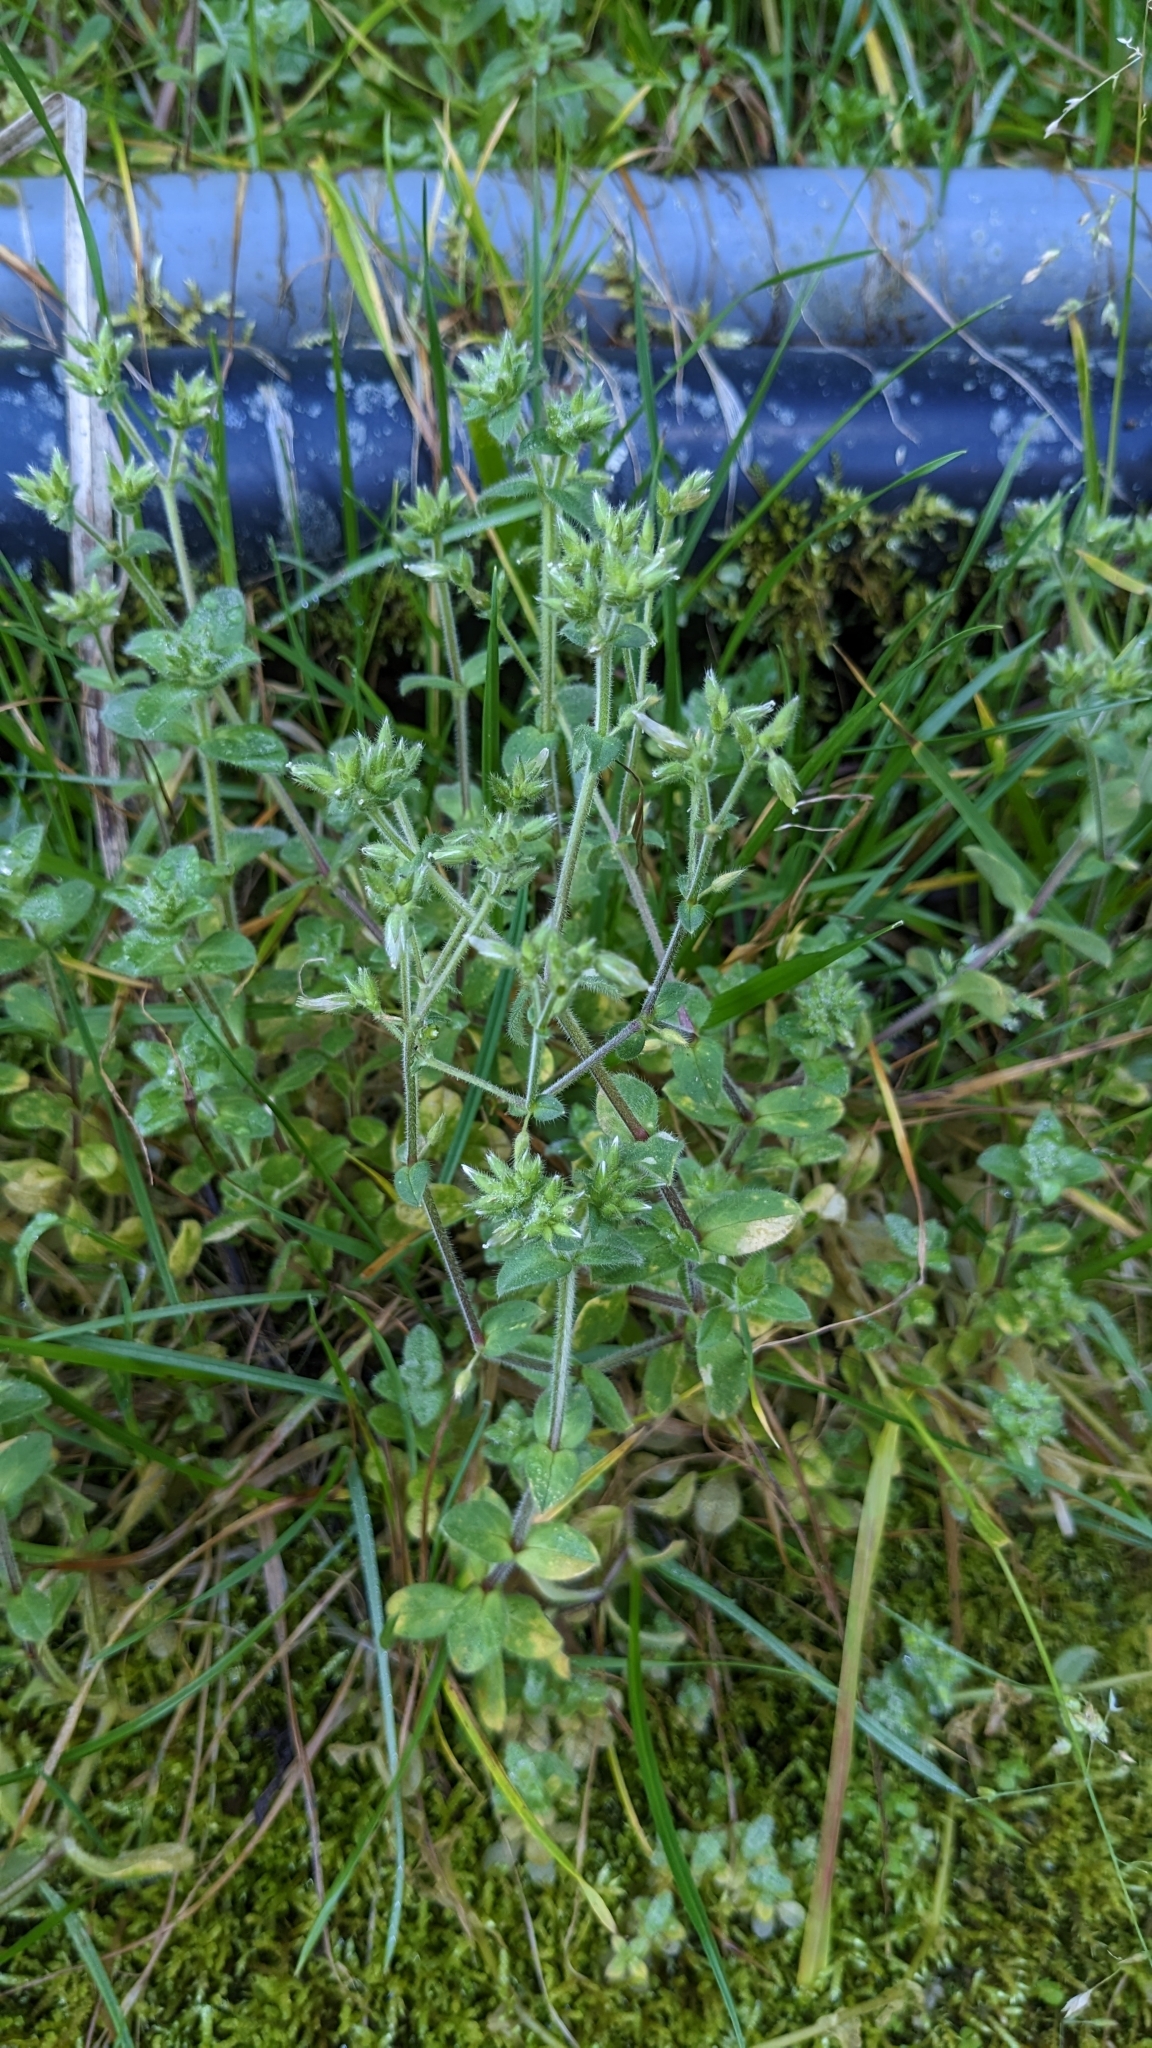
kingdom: Plantae
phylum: Tracheophyta
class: Magnoliopsida
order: Caryophyllales
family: Caryophyllaceae
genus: Cerastium
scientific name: Cerastium glomeratum
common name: Sticky chickweed
